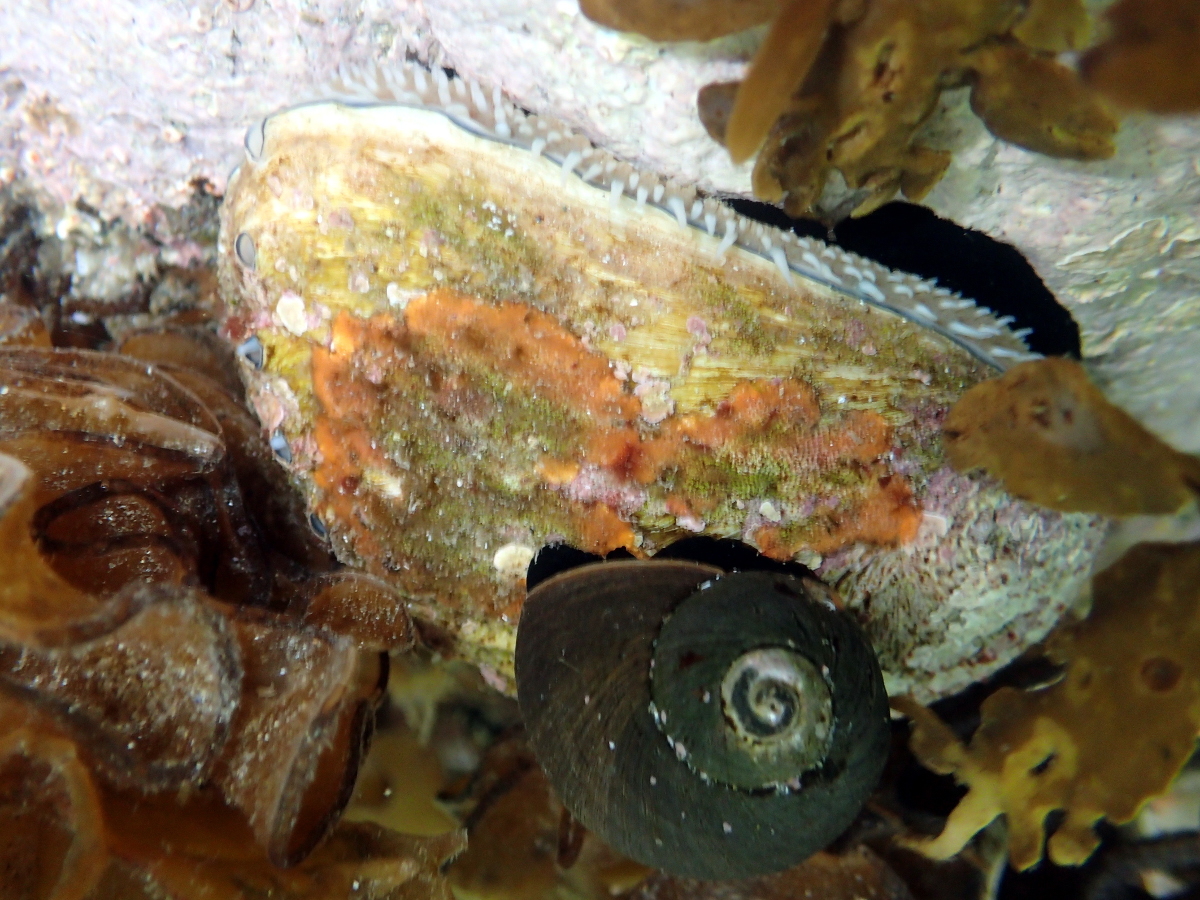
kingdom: Animalia
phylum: Mollusca
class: Gastropoda
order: Lepetellida
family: Haliotidae
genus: Haliotis
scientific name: Haliotis australis
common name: Silver abalone
